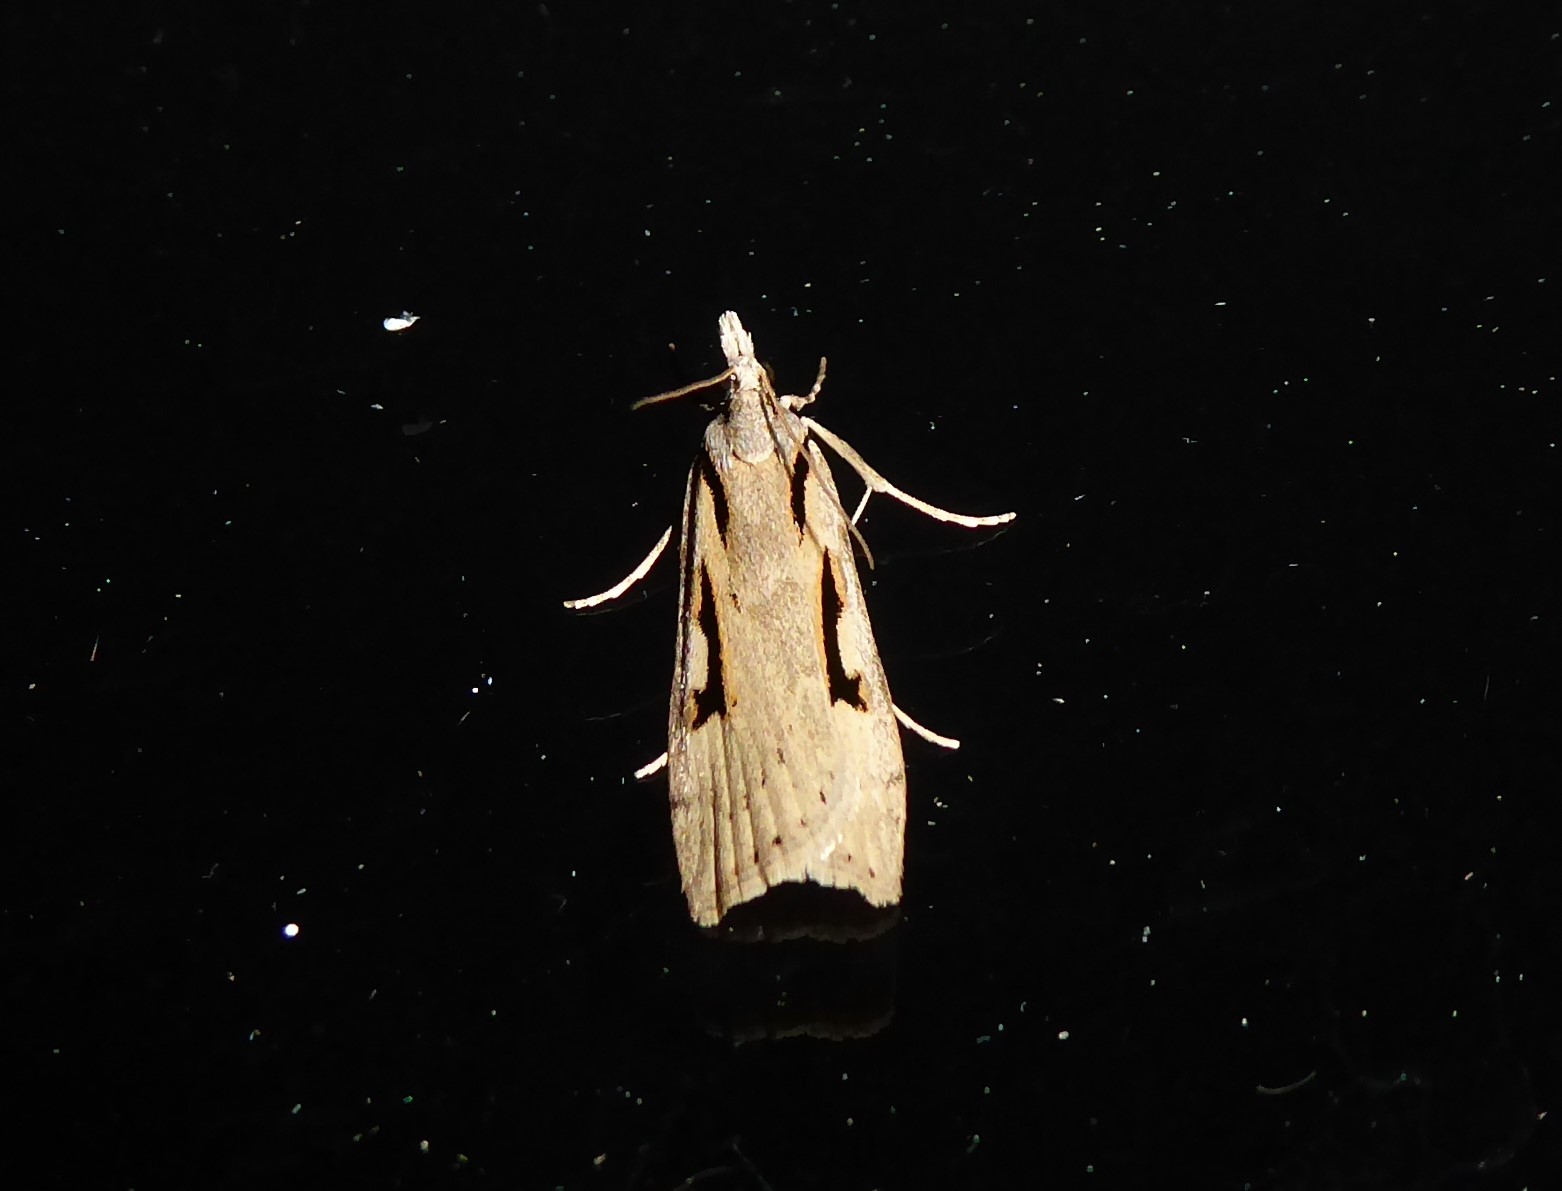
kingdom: Animalia
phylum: Arthropoda
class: Insecta
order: Lepidoptera
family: Crambidae
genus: Scoparia
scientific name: Scoparia rotuellus
